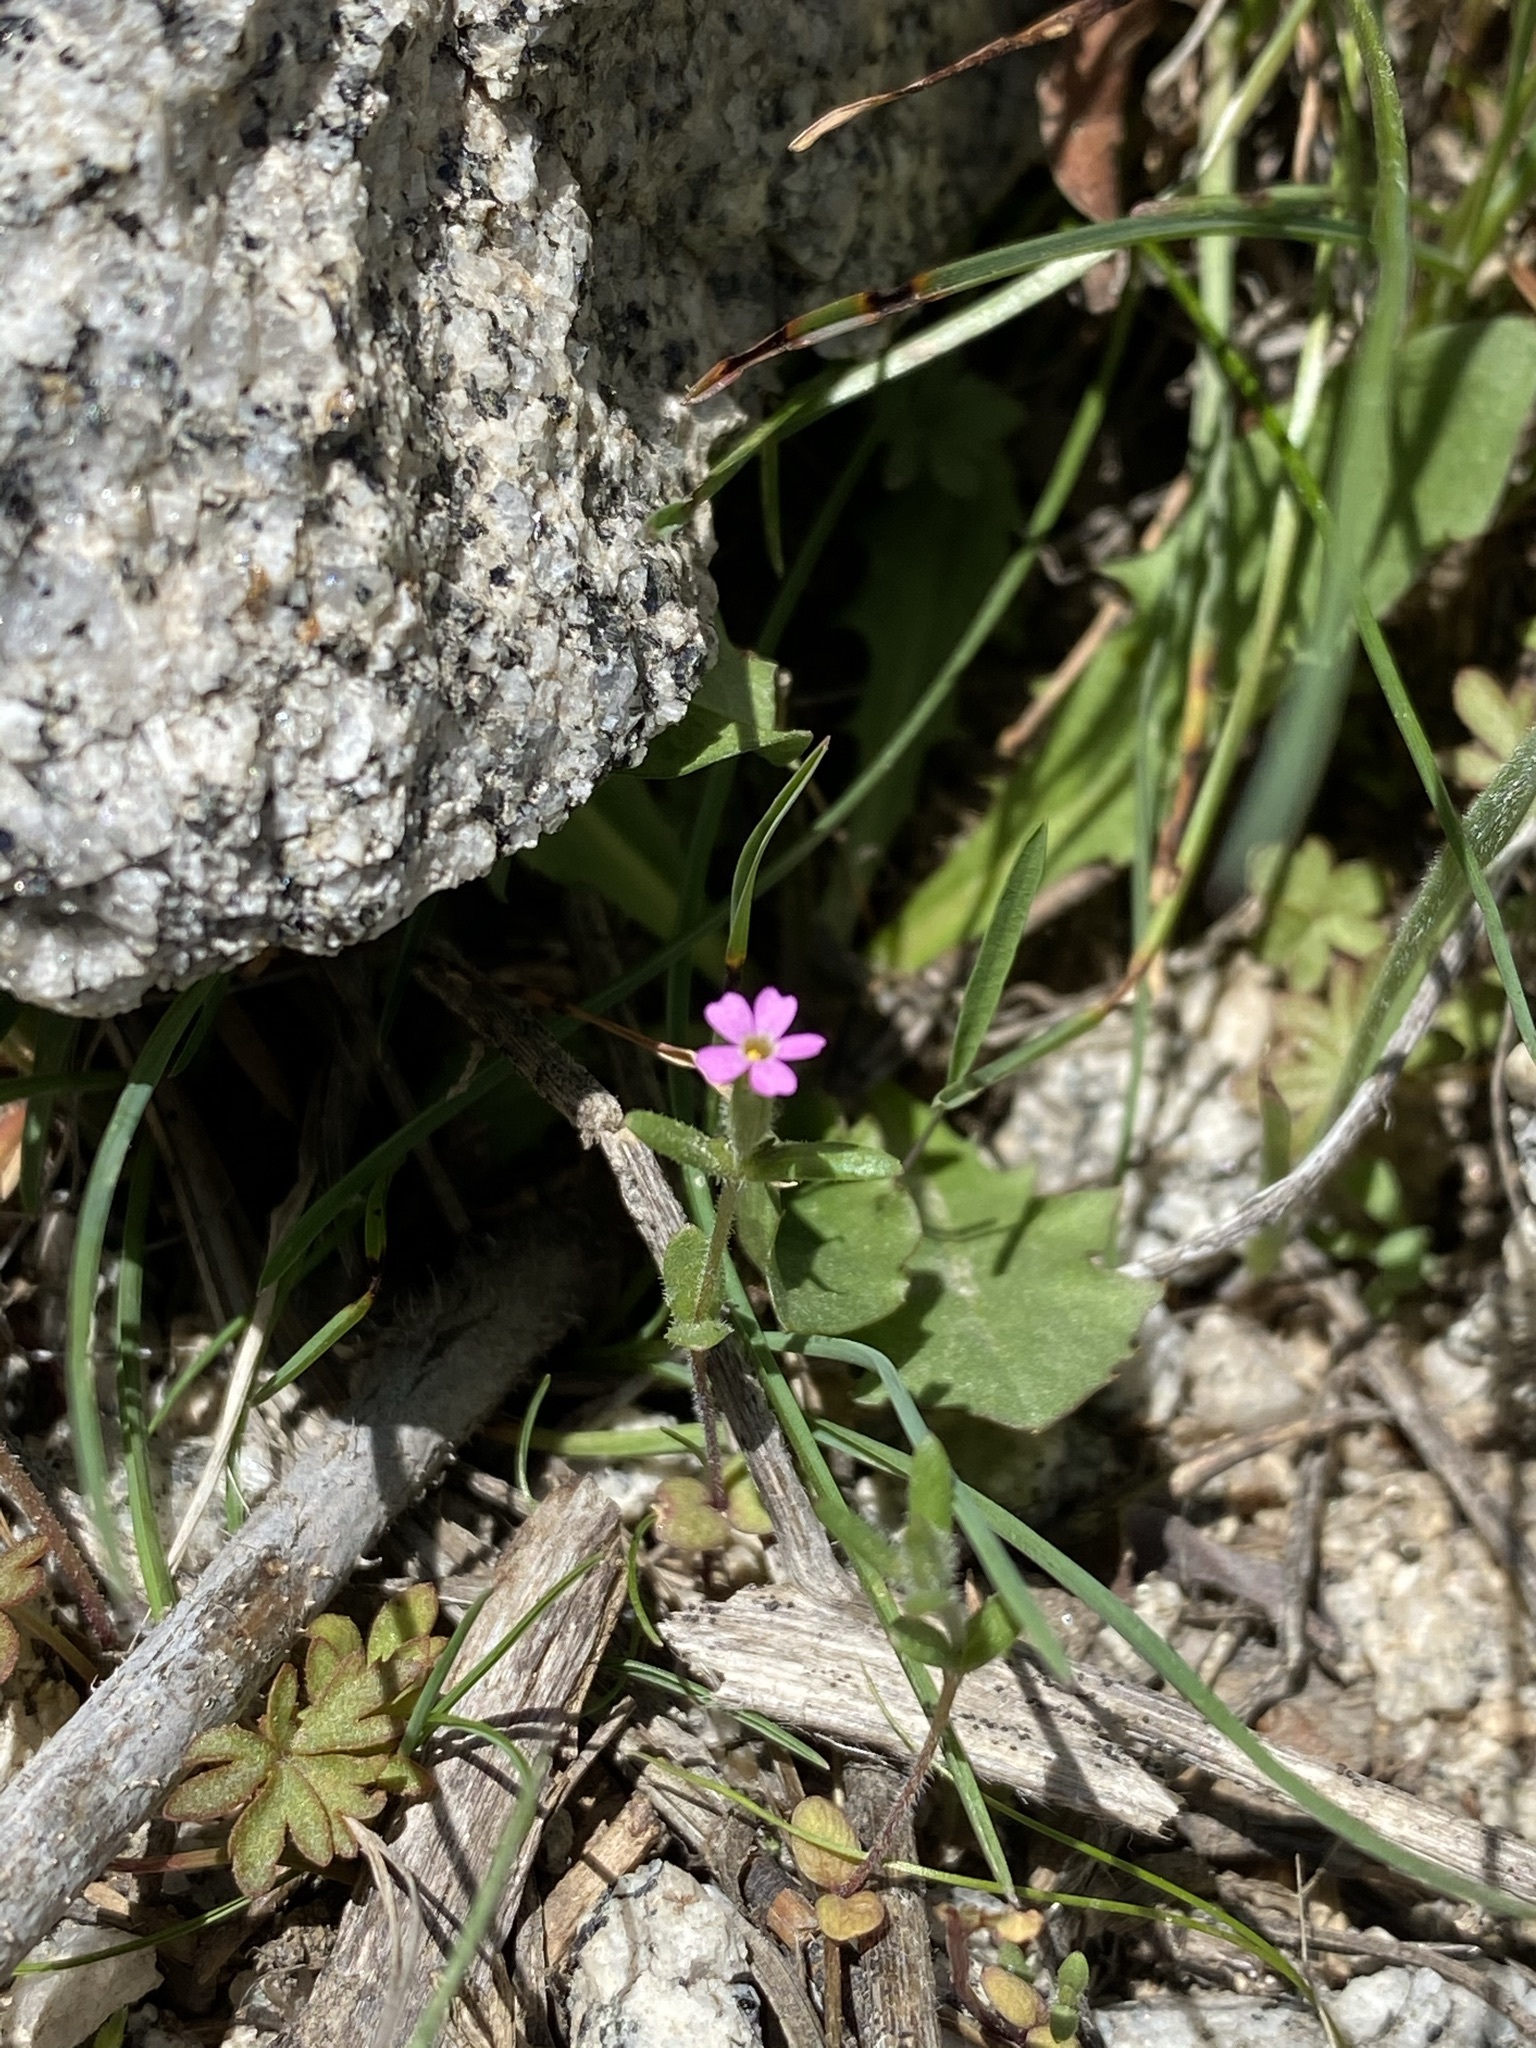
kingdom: Plantae
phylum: Tracheophyta
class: Magnoliopsida
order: Ericales
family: Polemoniaceae
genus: Phlox
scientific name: Phlox gracilis
